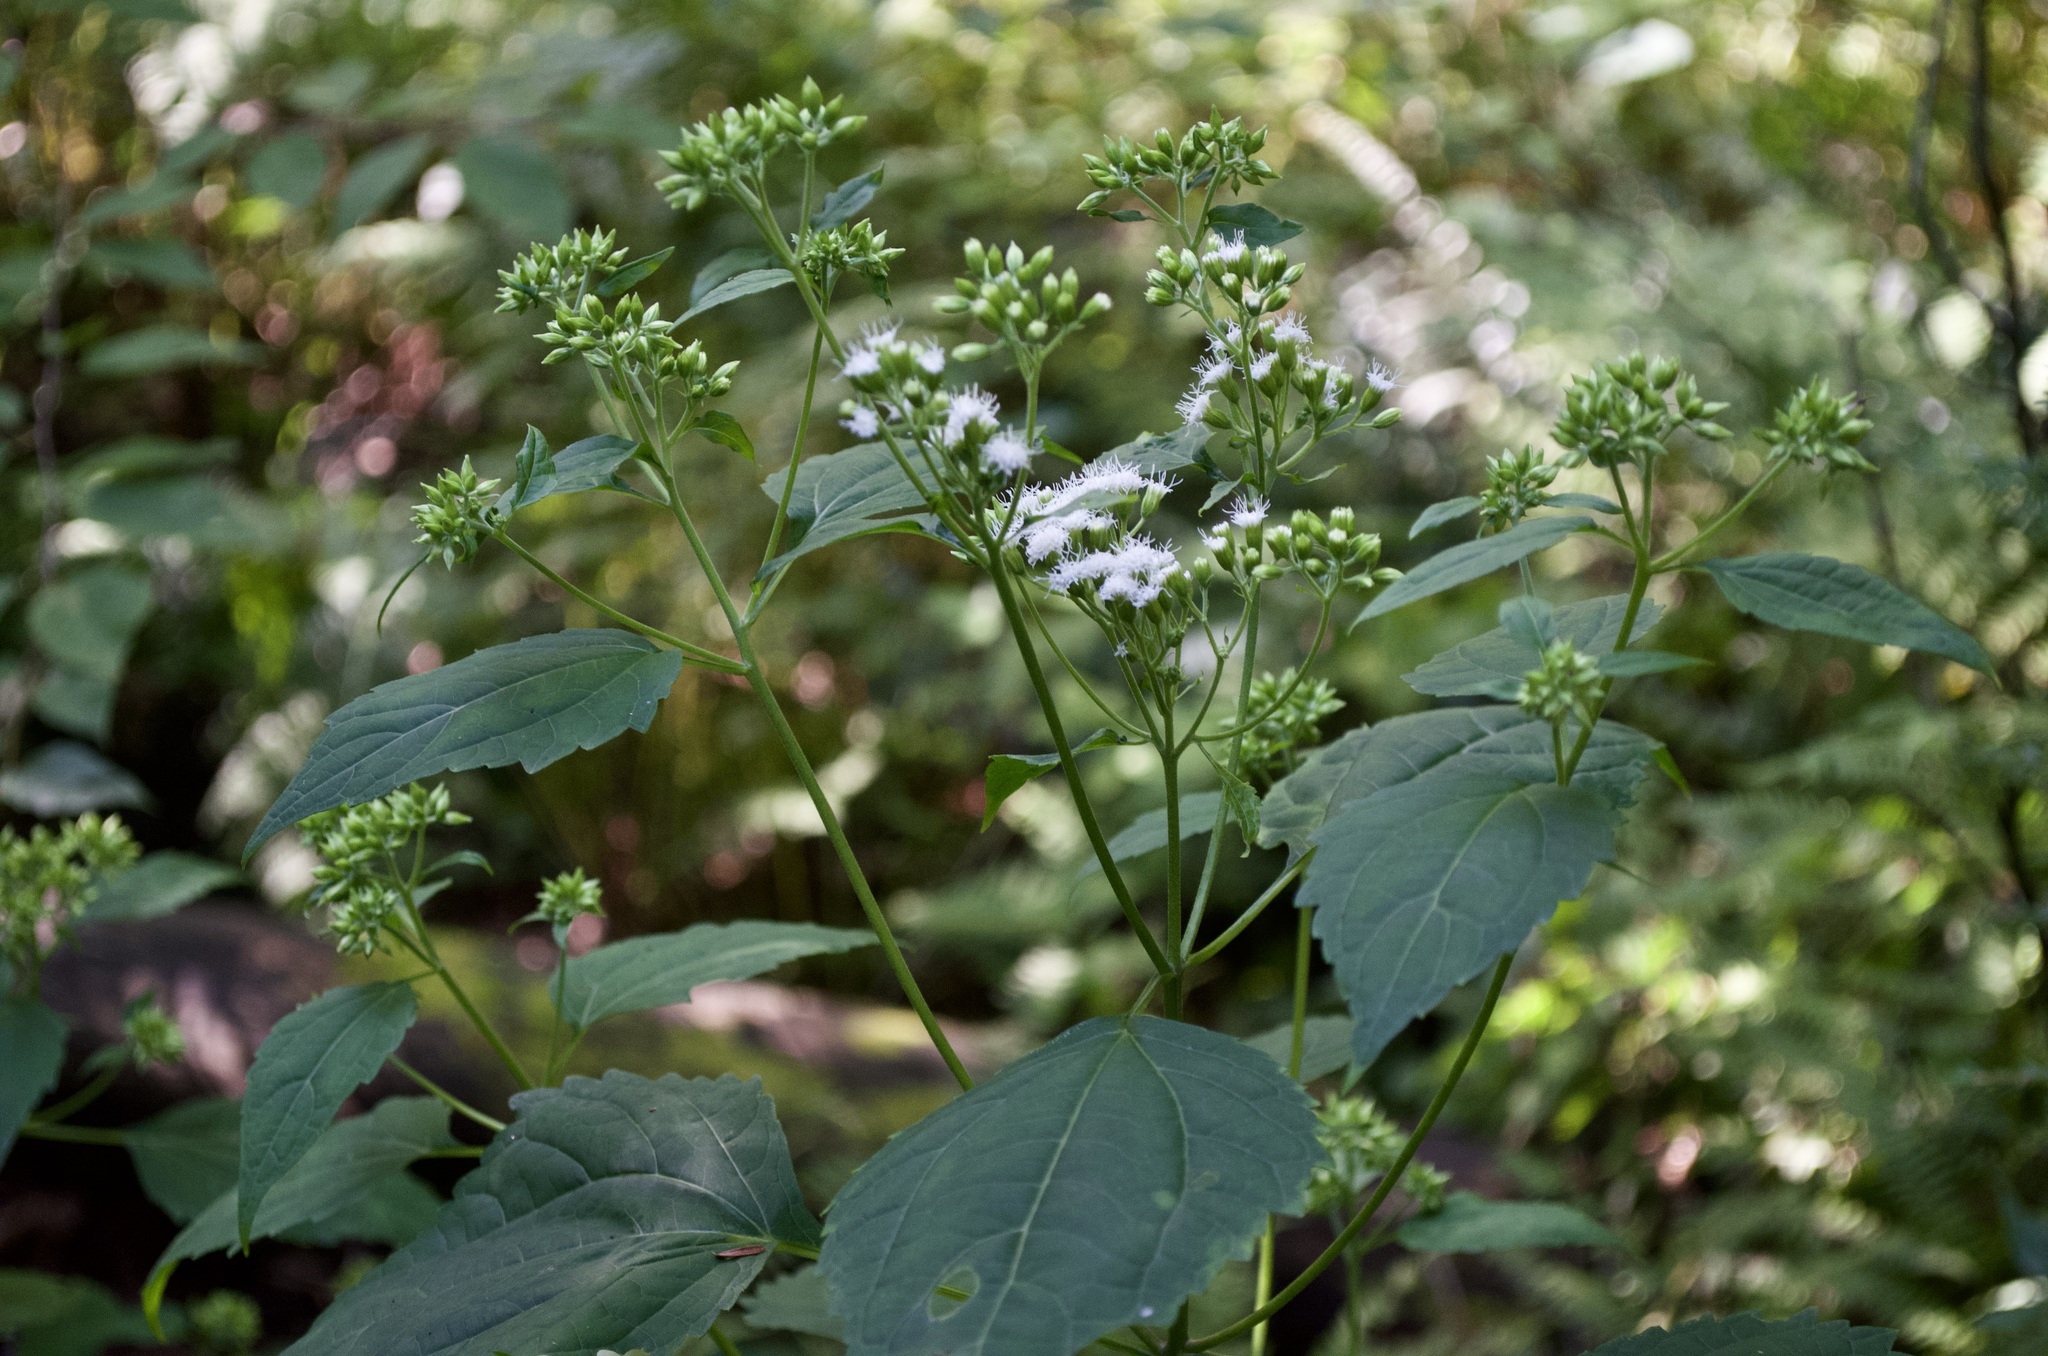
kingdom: Plantae
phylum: Tracheophyta
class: Magnoliopsida
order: Asterales
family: Asteraceae
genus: Ageratina
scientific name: Ageratina altissima
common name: White snakeroot
